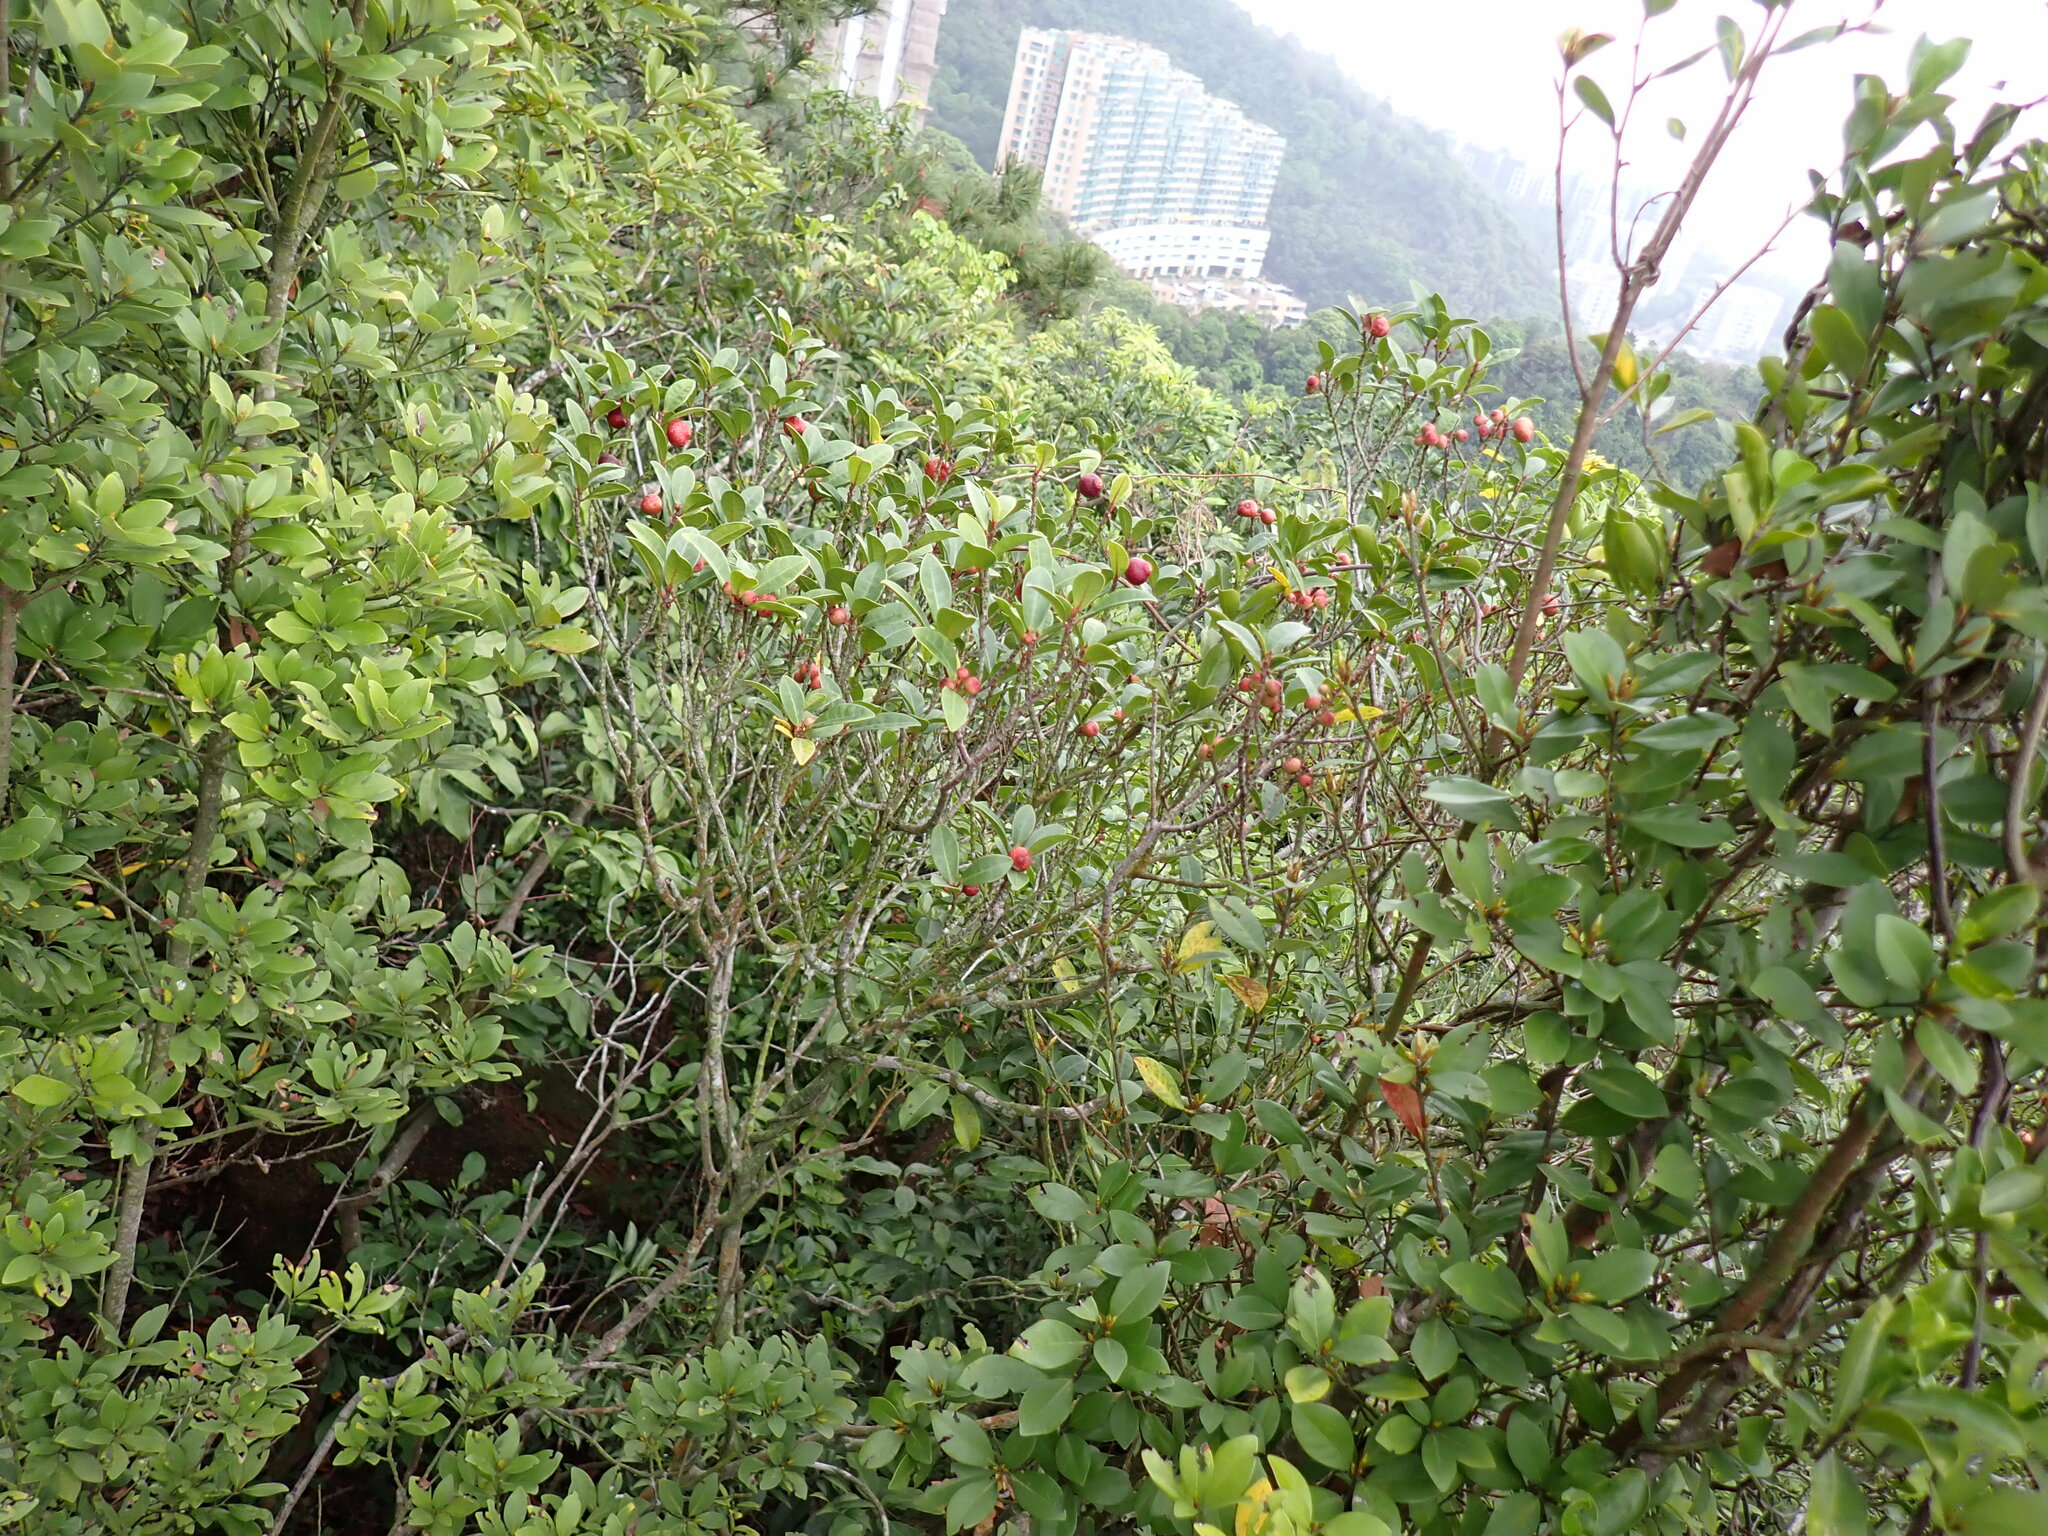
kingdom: Plantae
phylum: Tracheophyta
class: Magnoliopsida
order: Rosales
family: Moraceae
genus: Ficus
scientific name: Ficus variolosa
